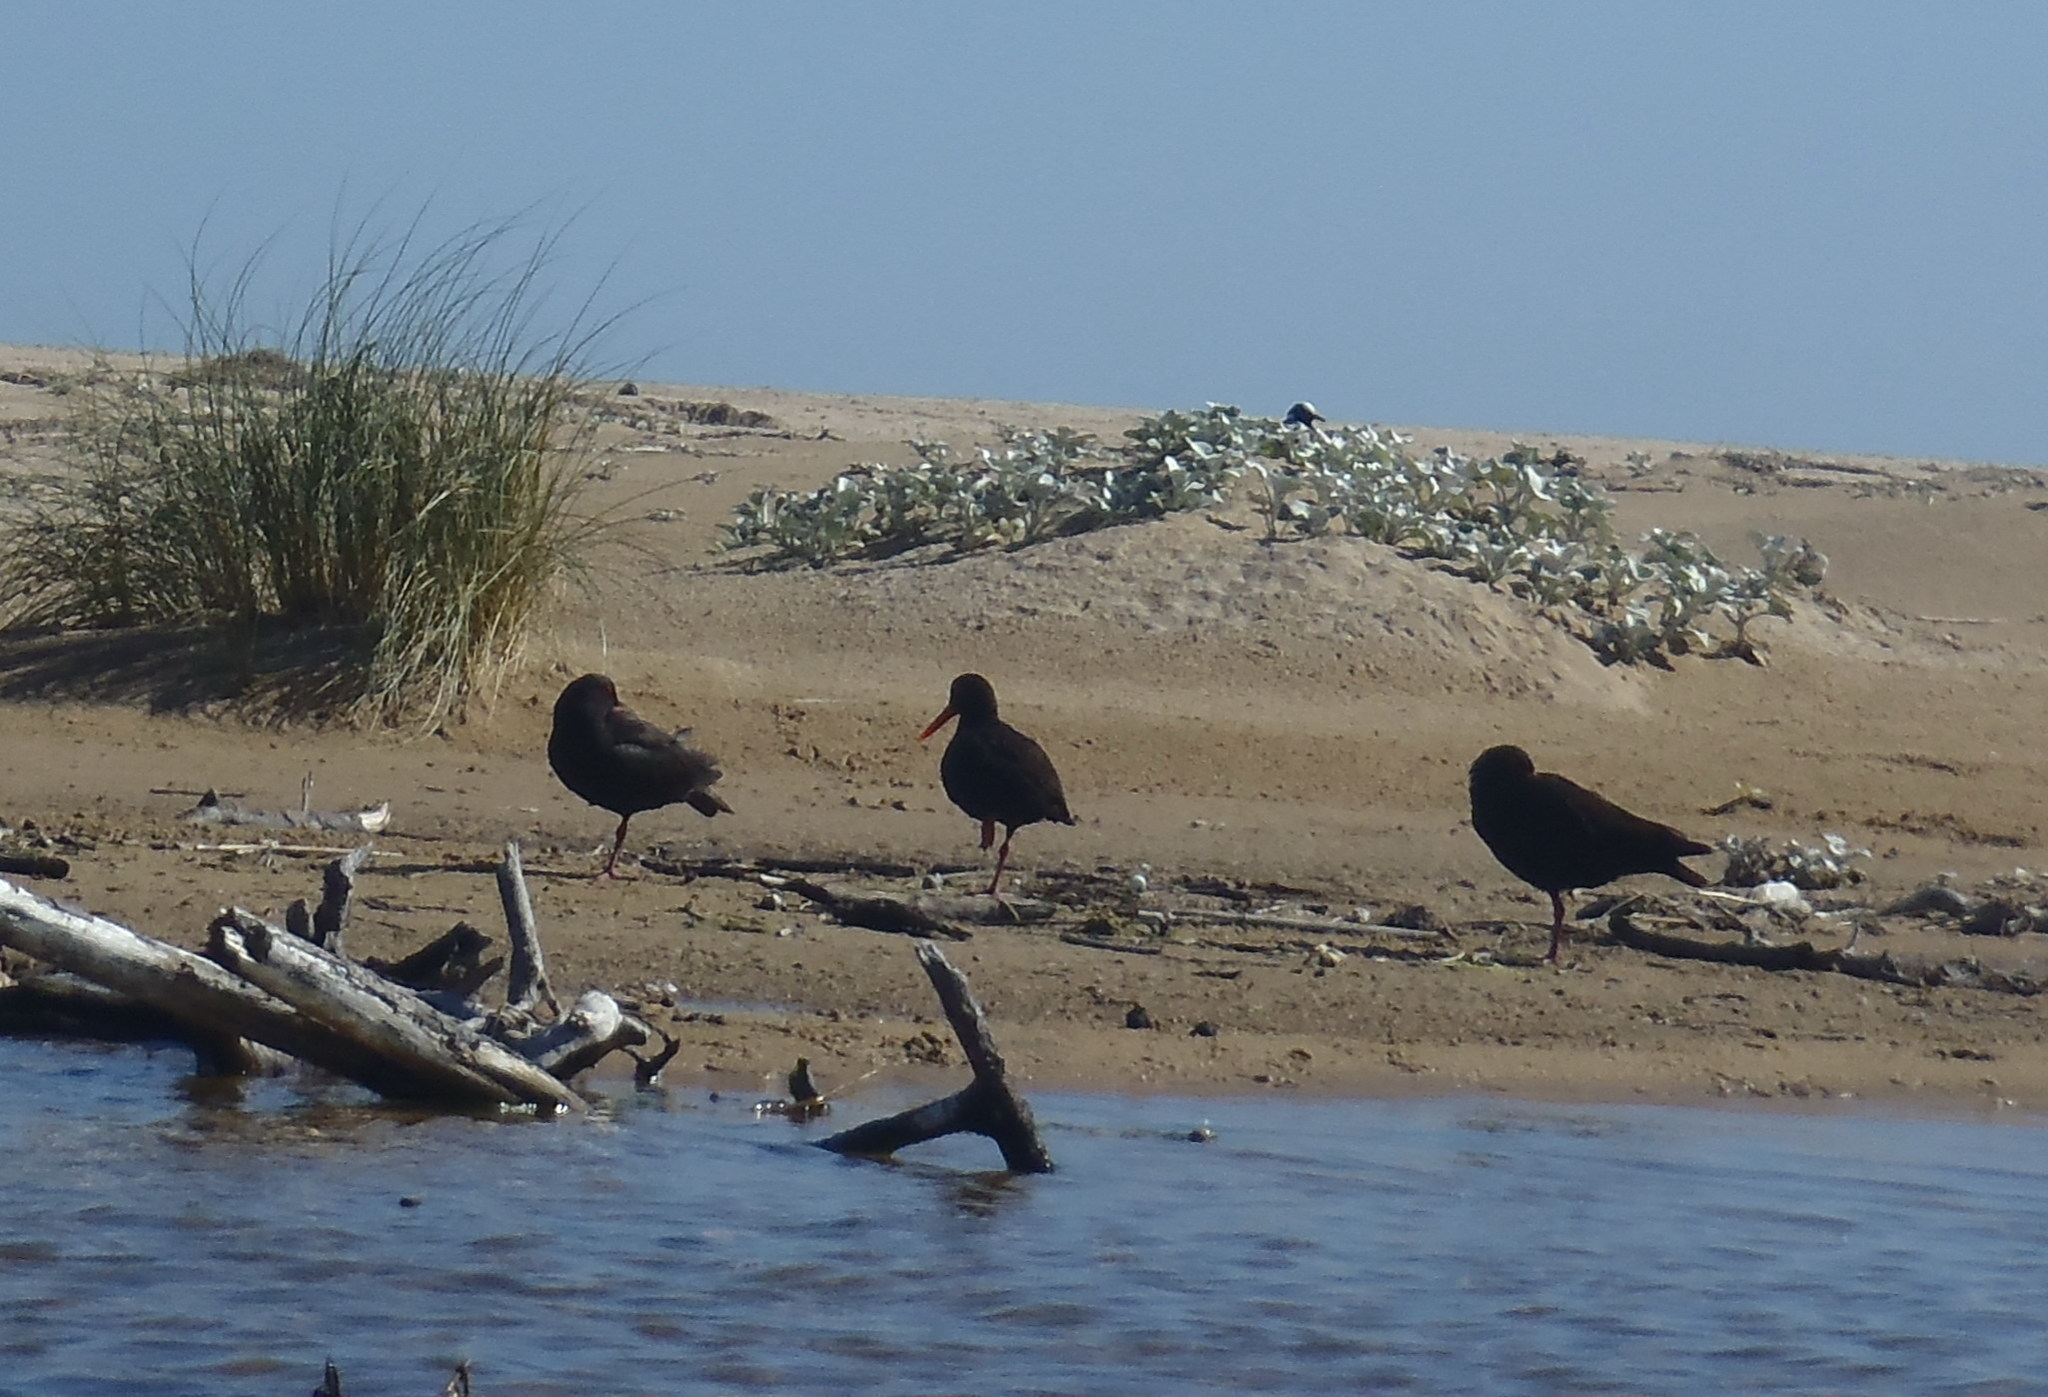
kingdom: Animalia
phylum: Chordata
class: Aves
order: Charadriiformes
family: Haematopodidae
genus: Haematopus
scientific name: Haematopus moquini
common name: African oystercatcher
